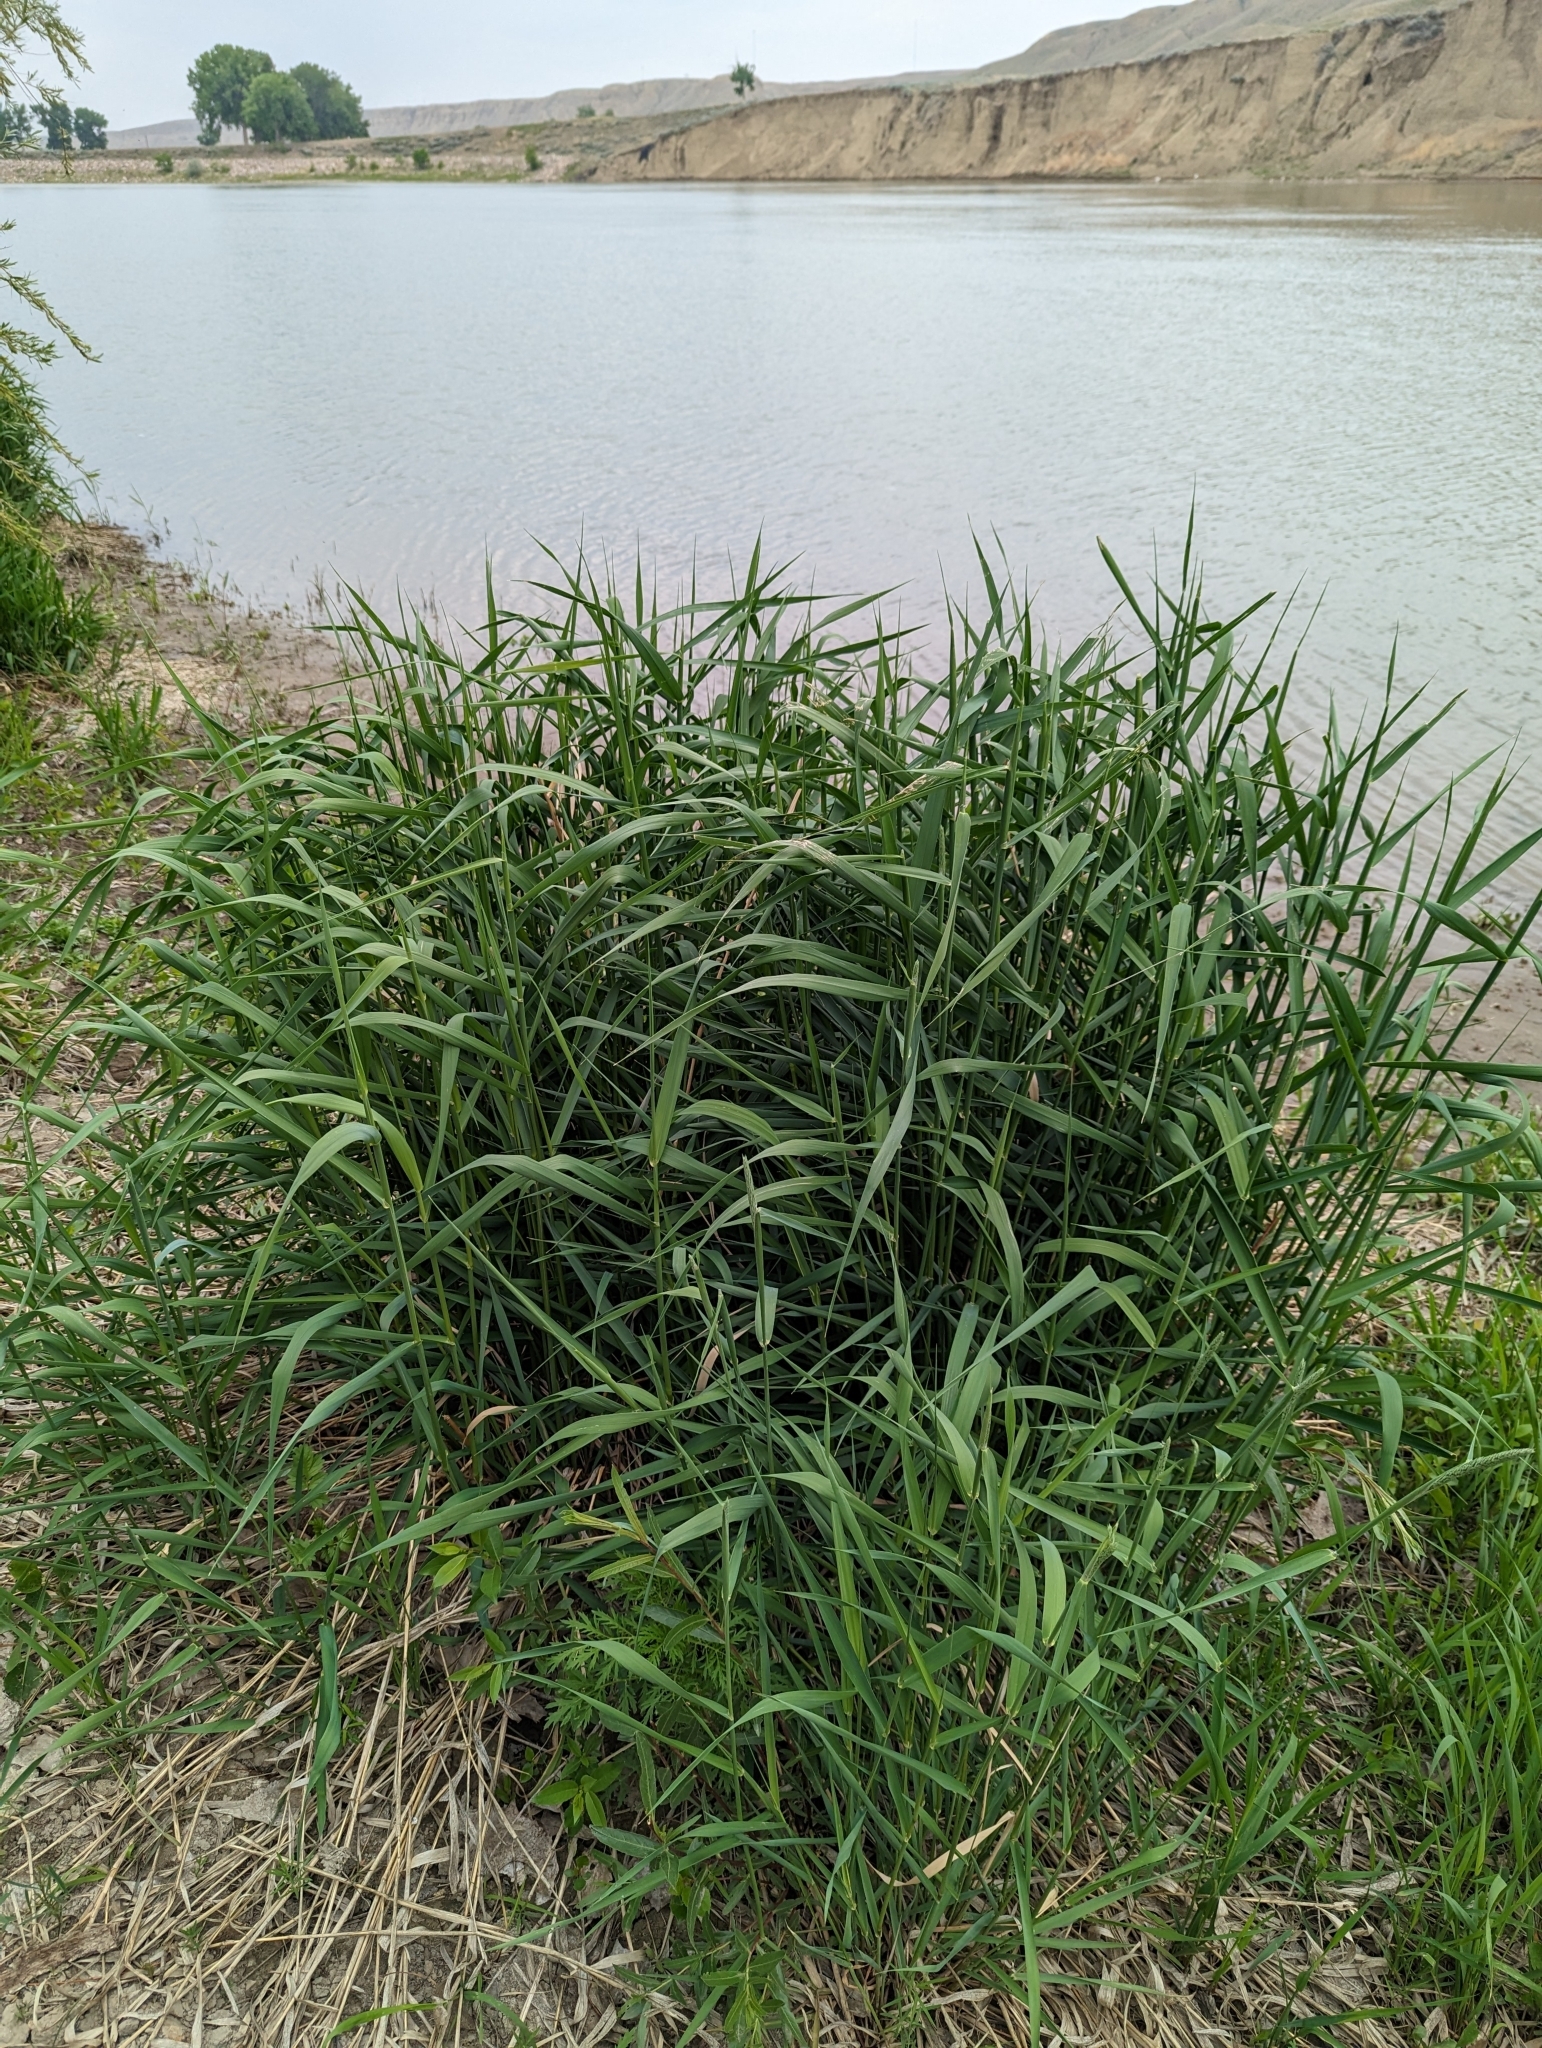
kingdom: Plantae
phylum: Tracheophyta
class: Liliopsida
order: Poales
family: Poaceae
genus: Phalaris
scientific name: Phalaris arundinacea
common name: Reed canary-grass
